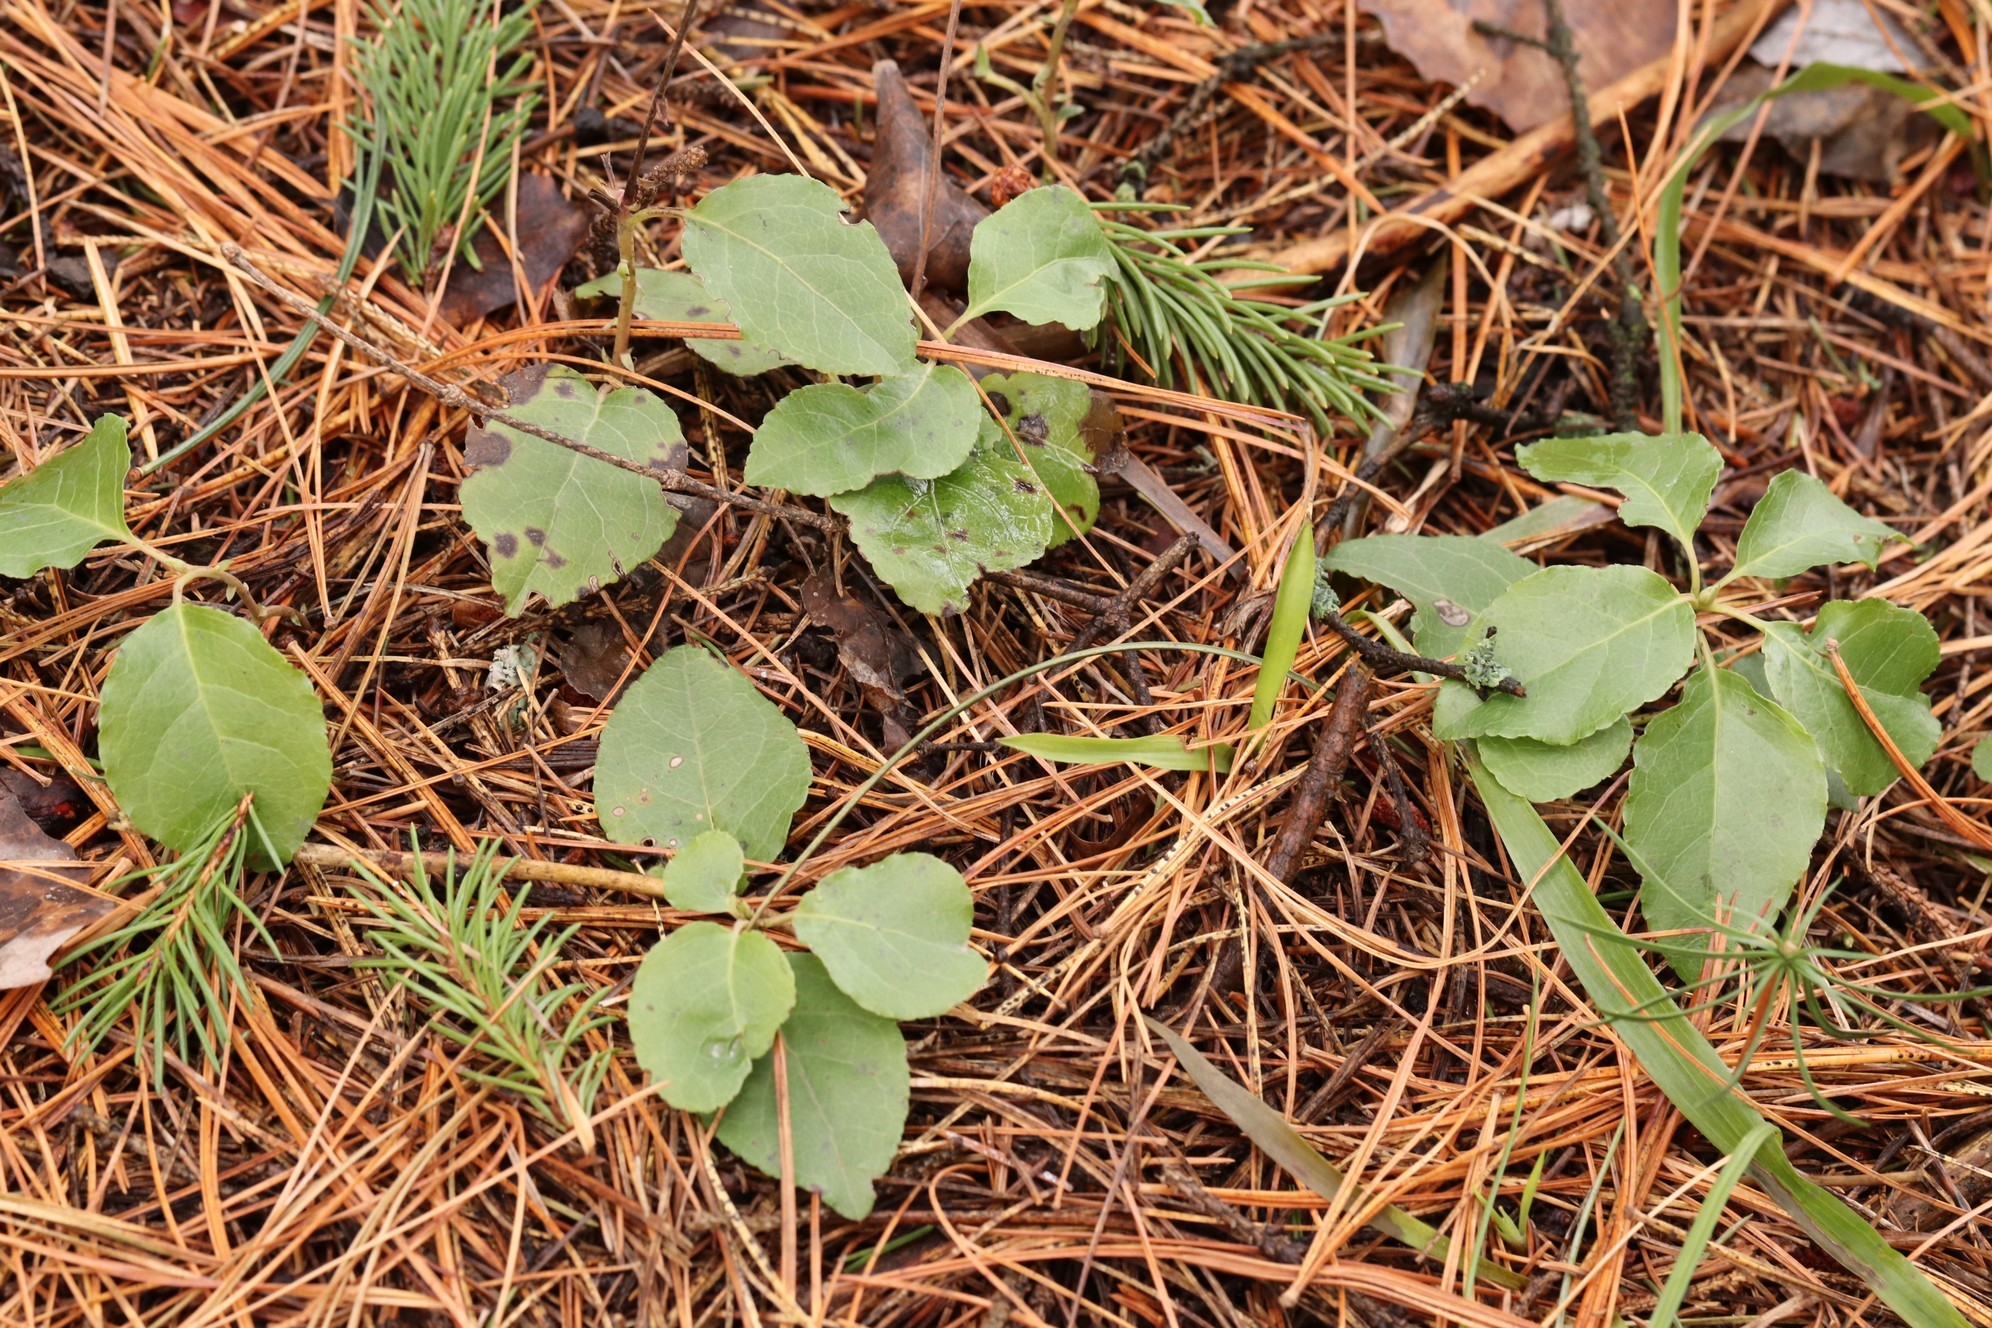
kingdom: Plantae
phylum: Tracheophyta
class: Magnoliopsida
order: Ericales
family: Ericaceae
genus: Orthilia
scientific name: Orthilia secunda
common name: One-sided orthilia
